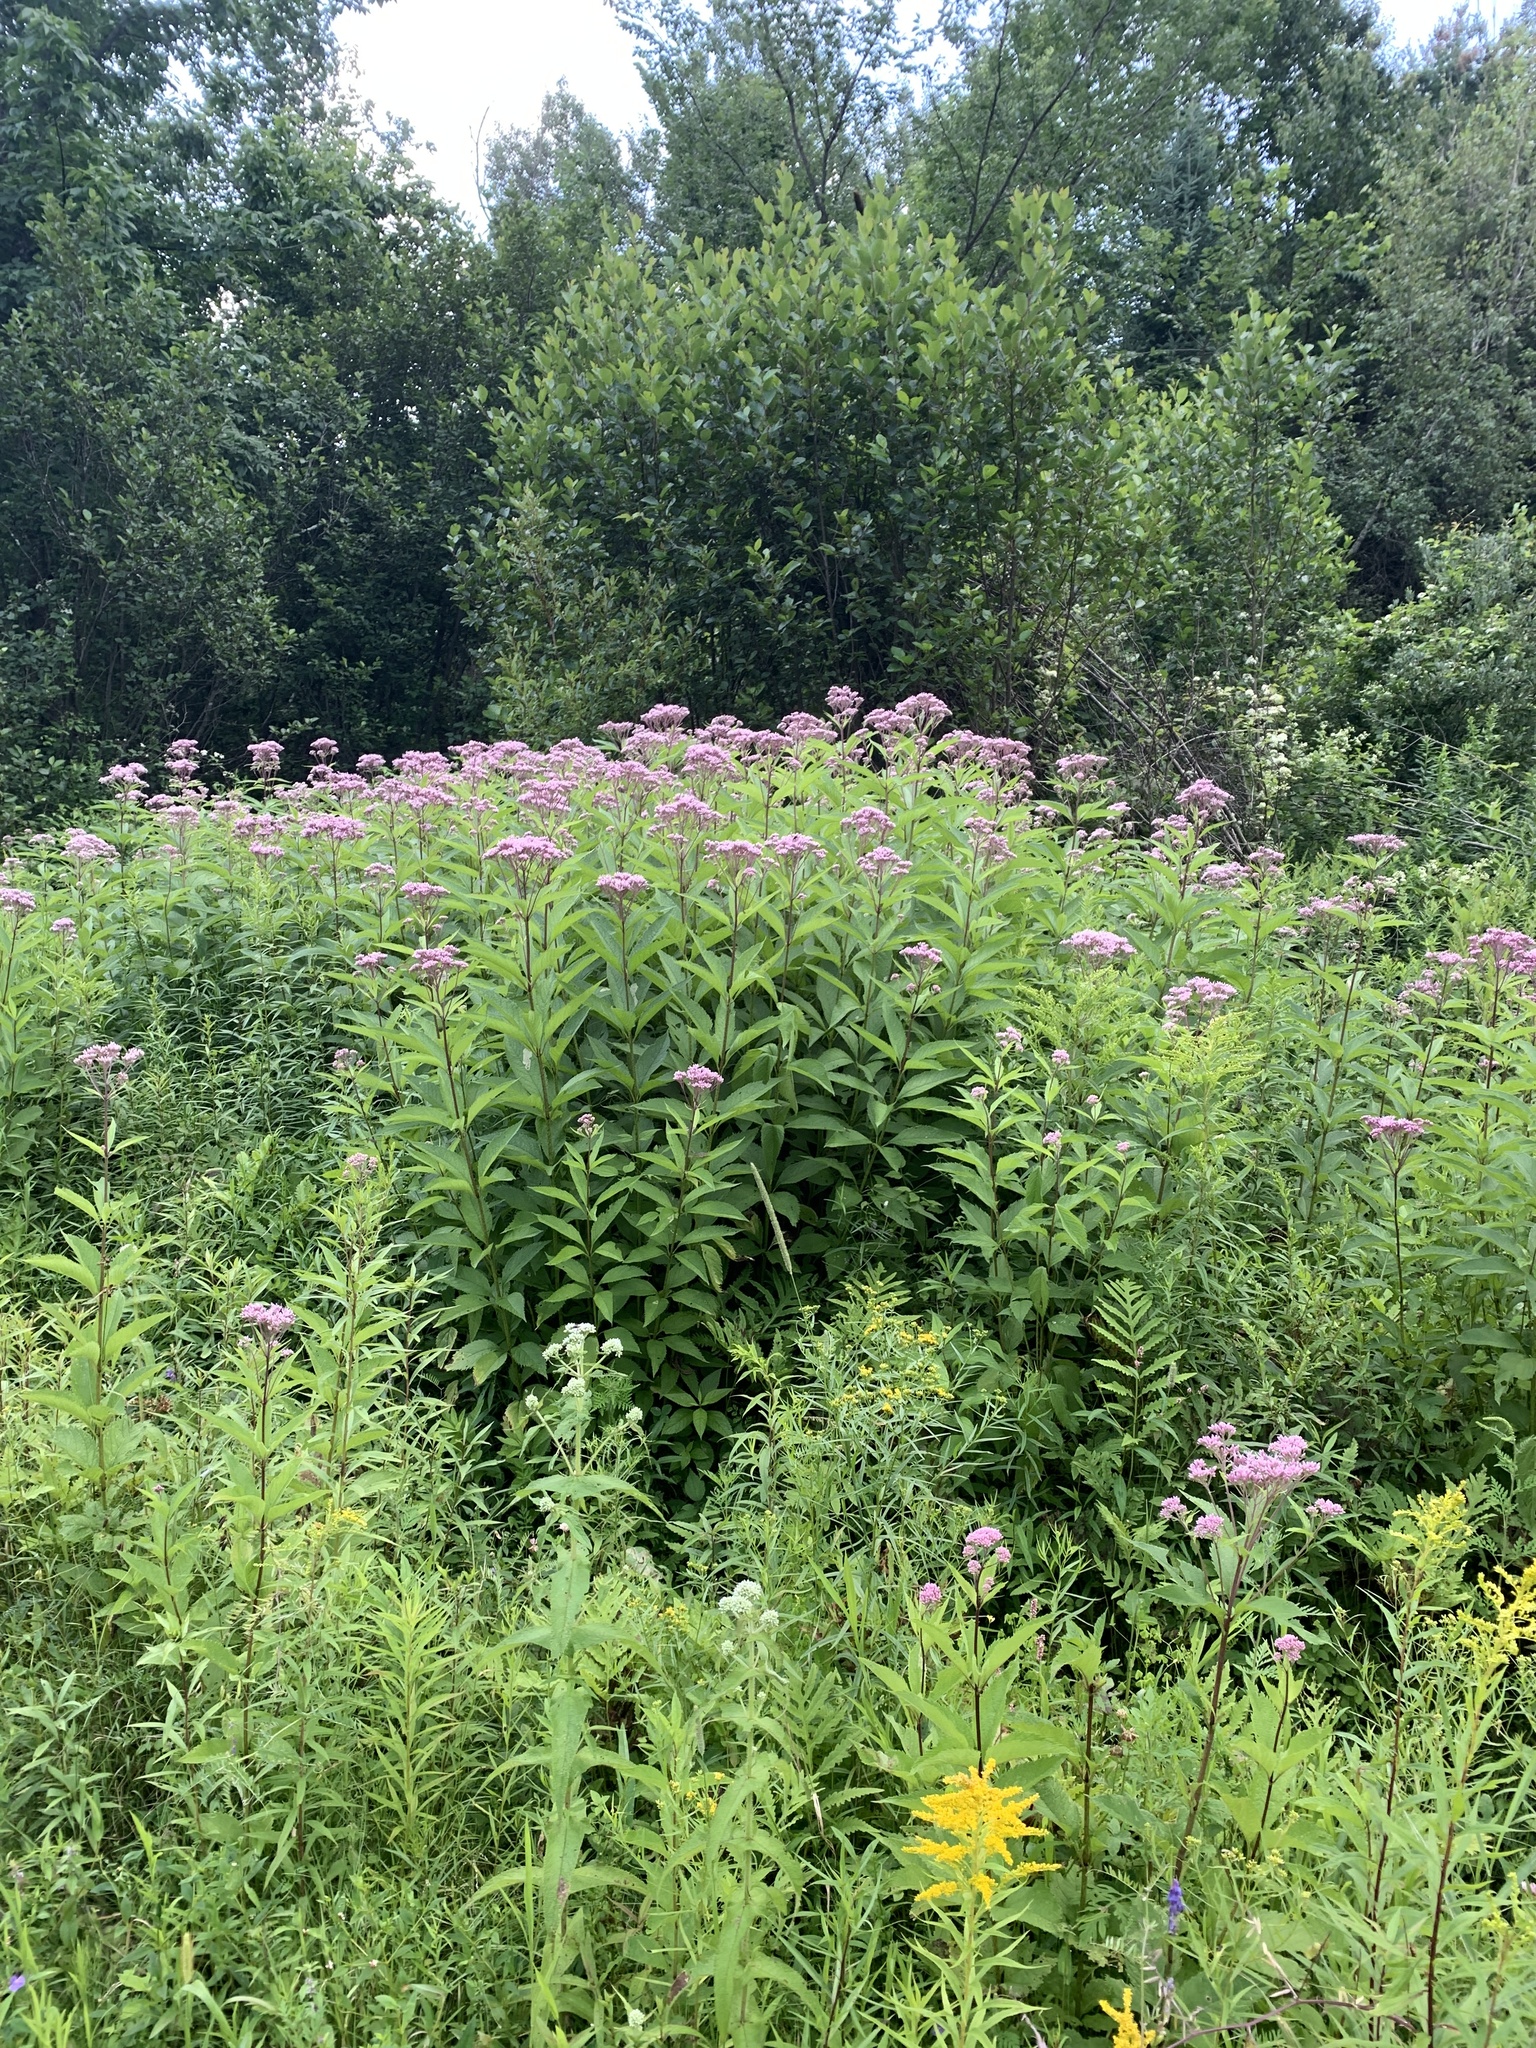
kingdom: Plantae
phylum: Tracheophyta
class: Magnoliopsida
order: Asterales
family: Asteraceae
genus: Eutrochium
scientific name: Eutrochium maculatum
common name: Spotted joe pye weed
